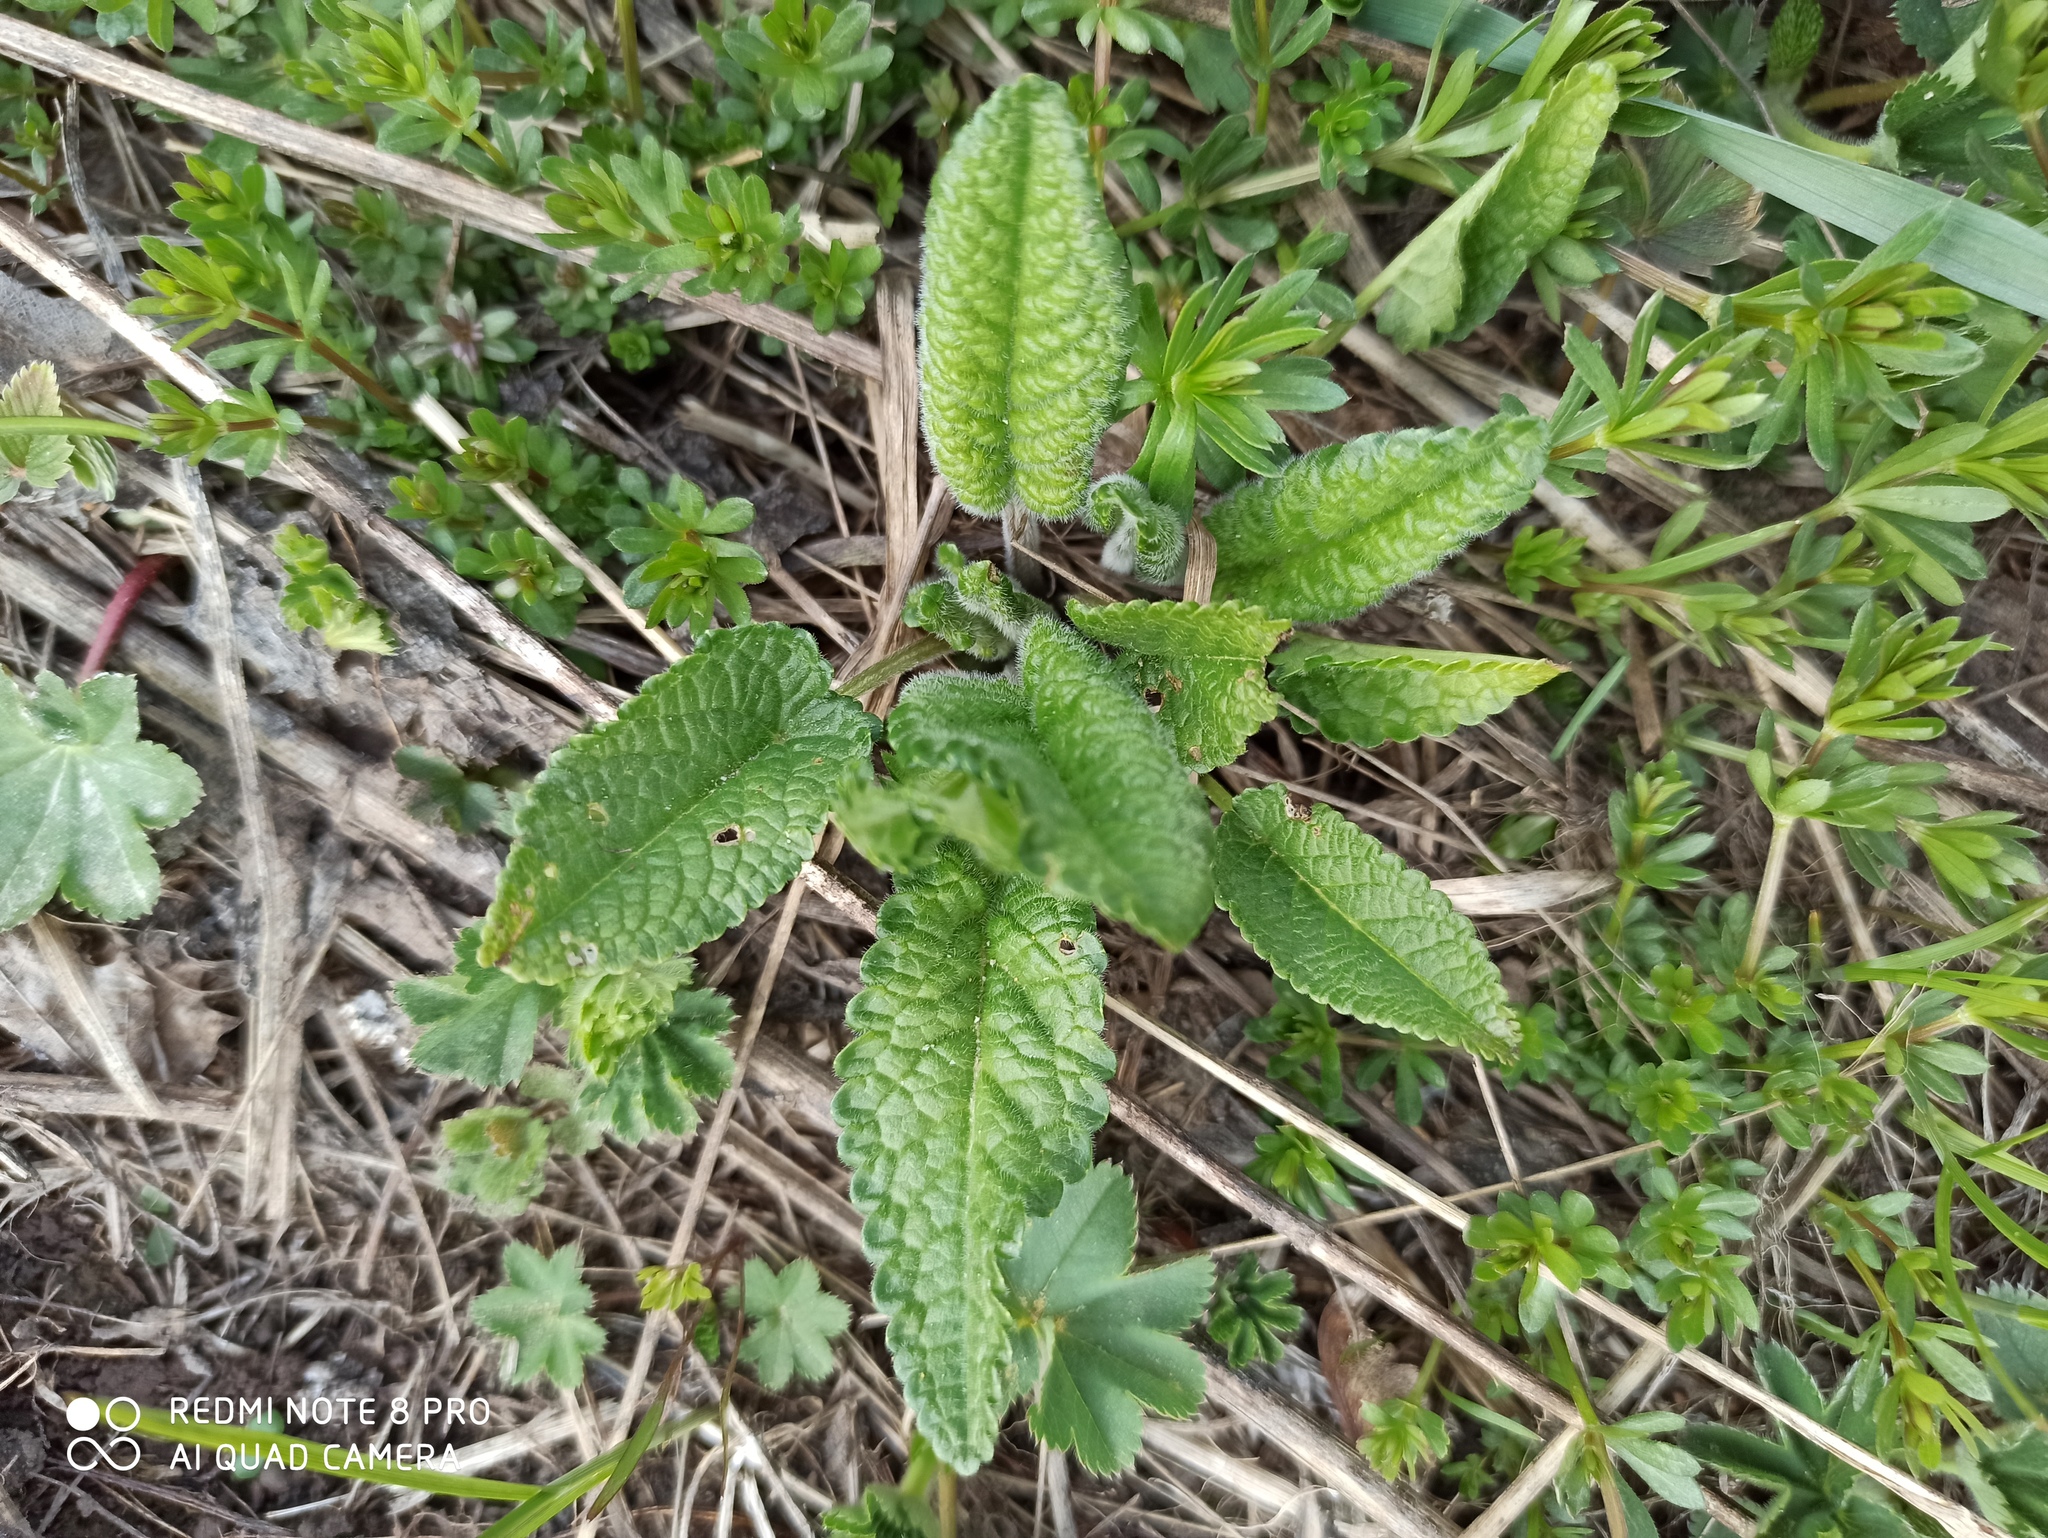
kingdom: Plantae
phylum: Tracheophyta
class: Magnoliopsida
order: Lamiales
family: Lamiaceae
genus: Betonica
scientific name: Betonica officinalis
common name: Bishop's-wort
